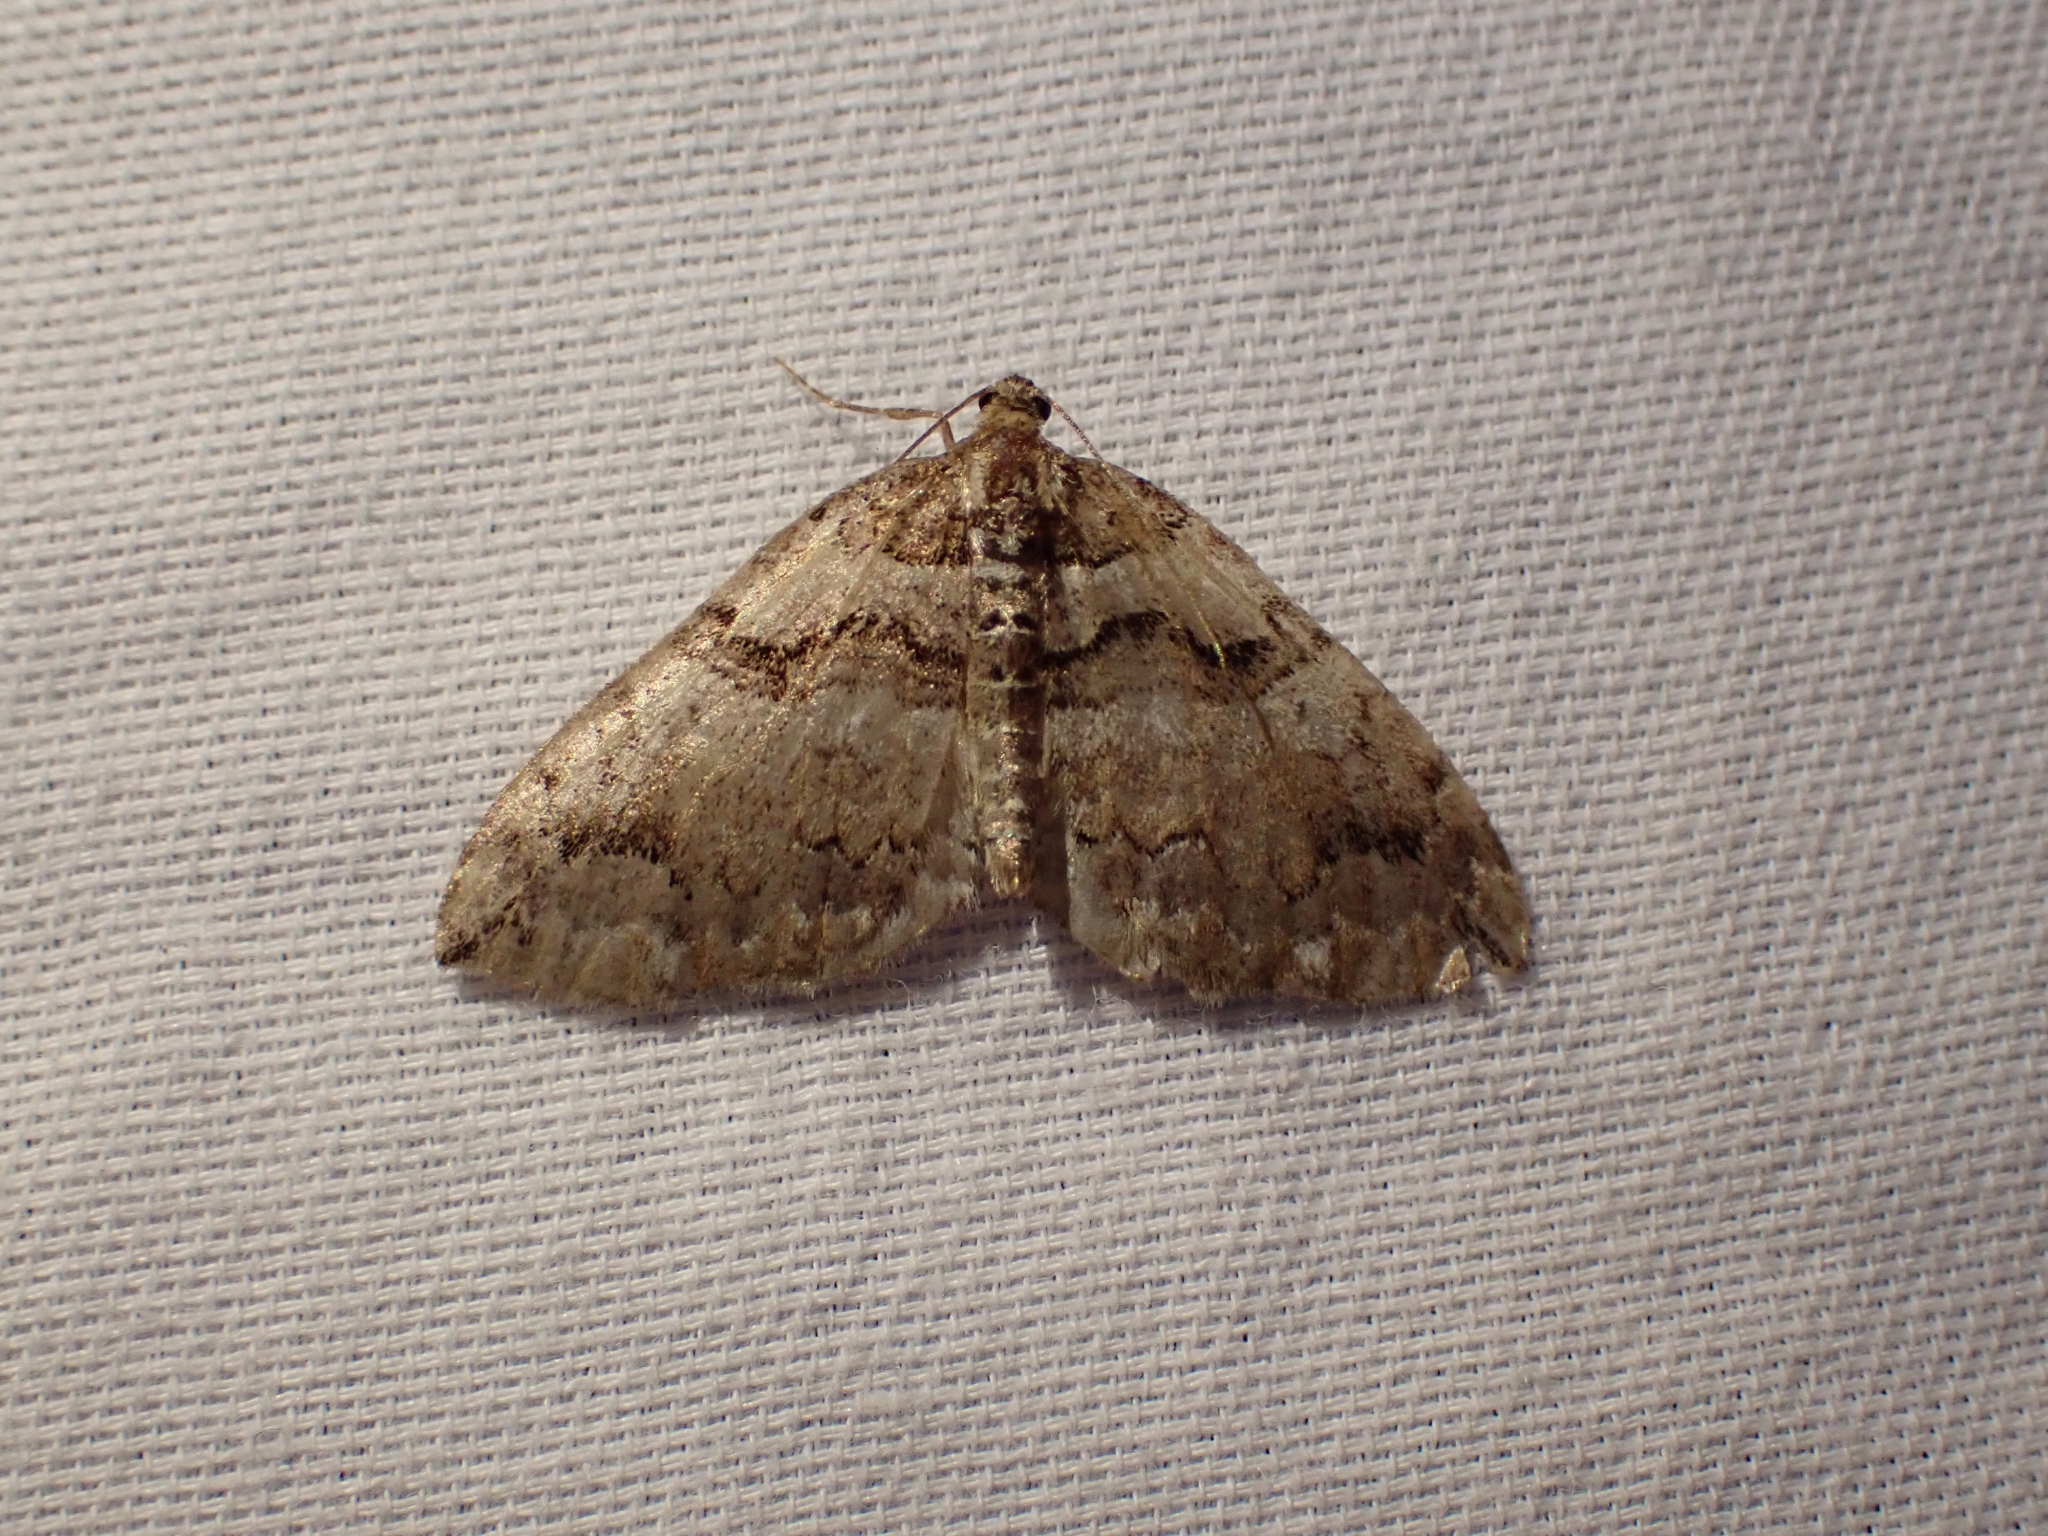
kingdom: Animalia
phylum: Arthropoda
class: Insecta
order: Lepidoptera
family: Geometridae
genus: Anticlea
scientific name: Anticlea vasiliata
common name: Variable carpet
